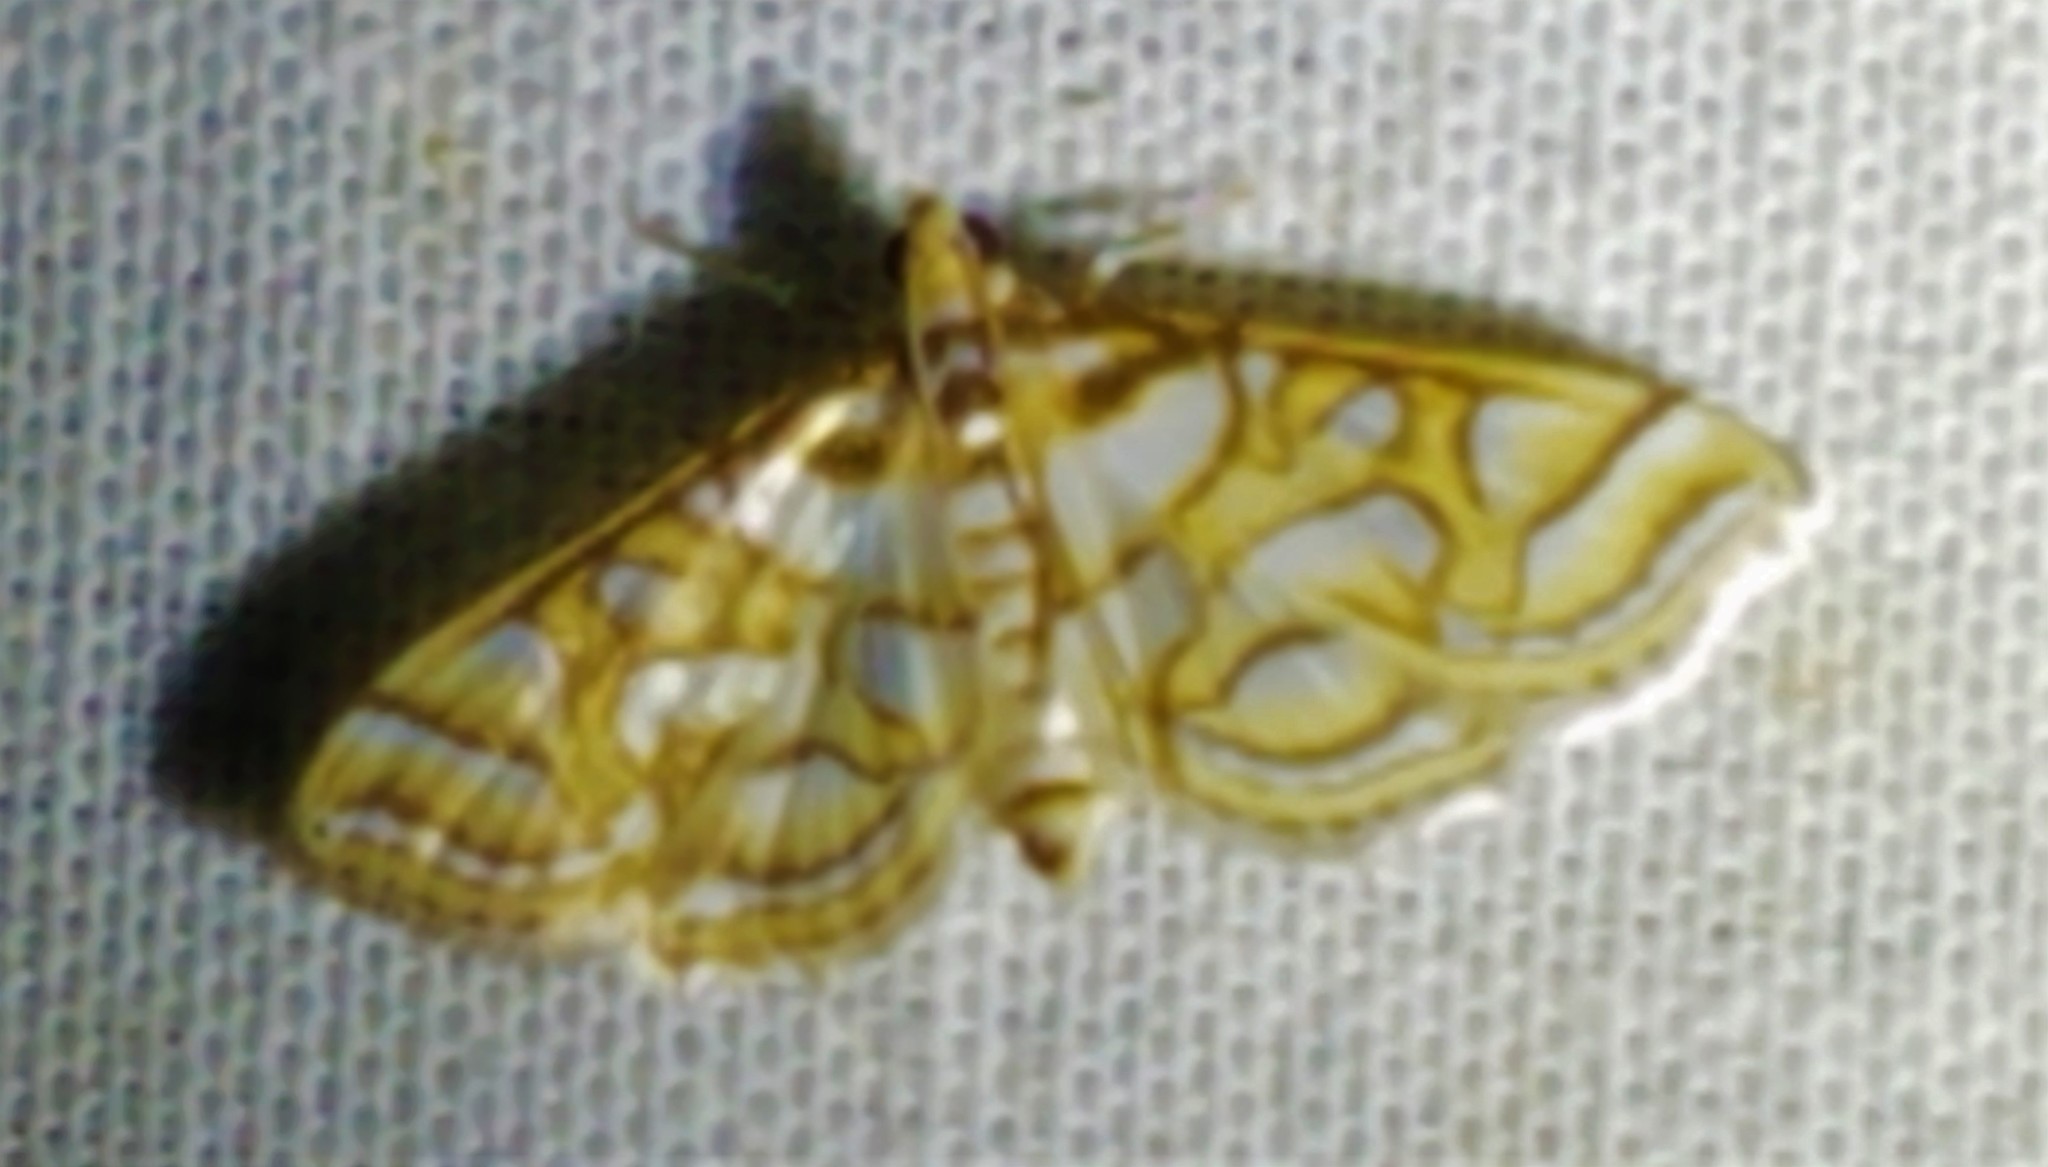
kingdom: Animalia
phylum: Arthropoda
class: Insecta
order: Lepidoptera
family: Crambidae
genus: Pseudopyrausta
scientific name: Pseudopyrausta santatalis
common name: Moth
